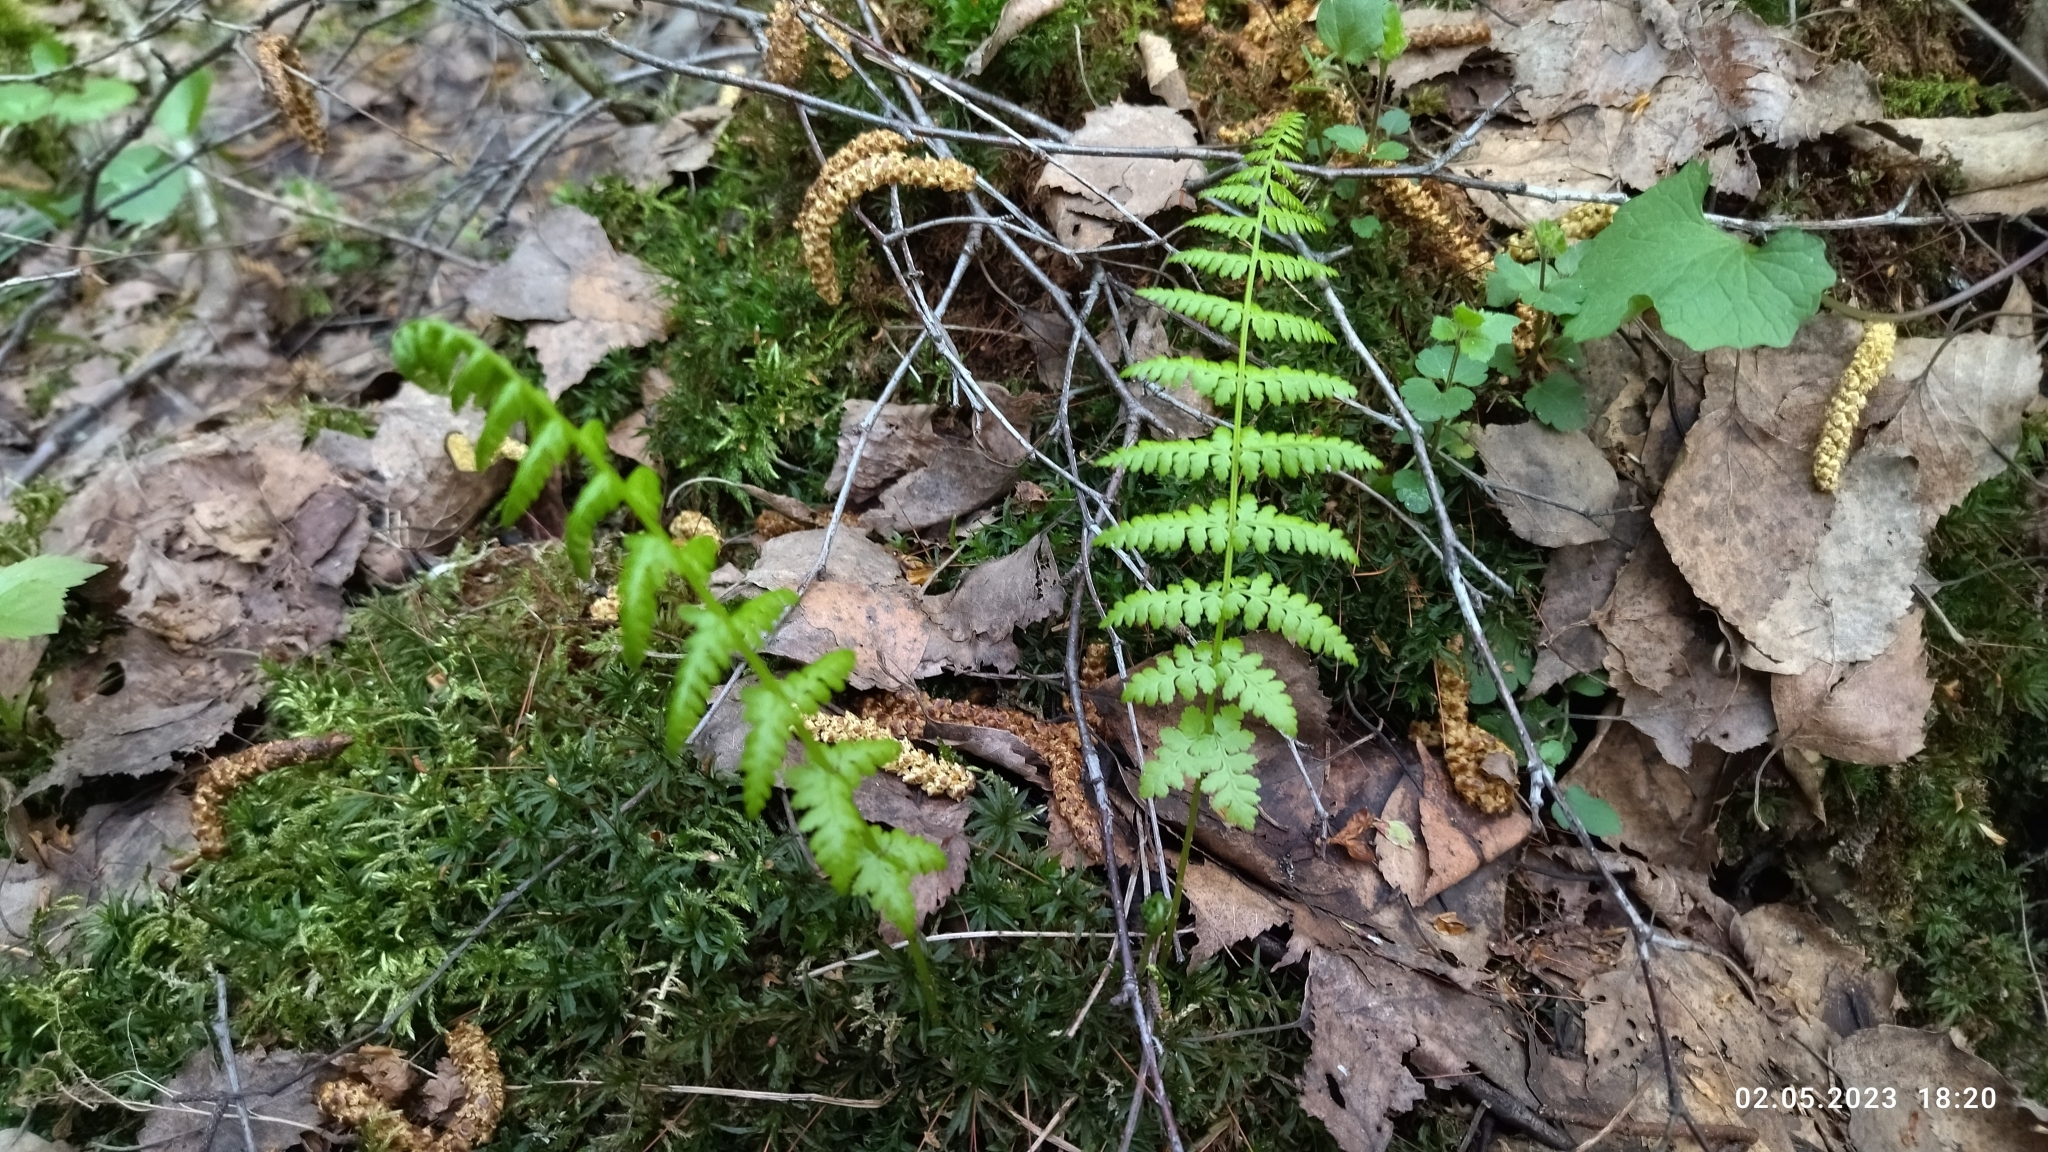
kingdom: Plantae
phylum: Tracheophyta
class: Polypodiopsida
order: Polypodiales
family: Athyriaceae
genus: Athyrium
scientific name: Athyrium filix-femina
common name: Lady fern
